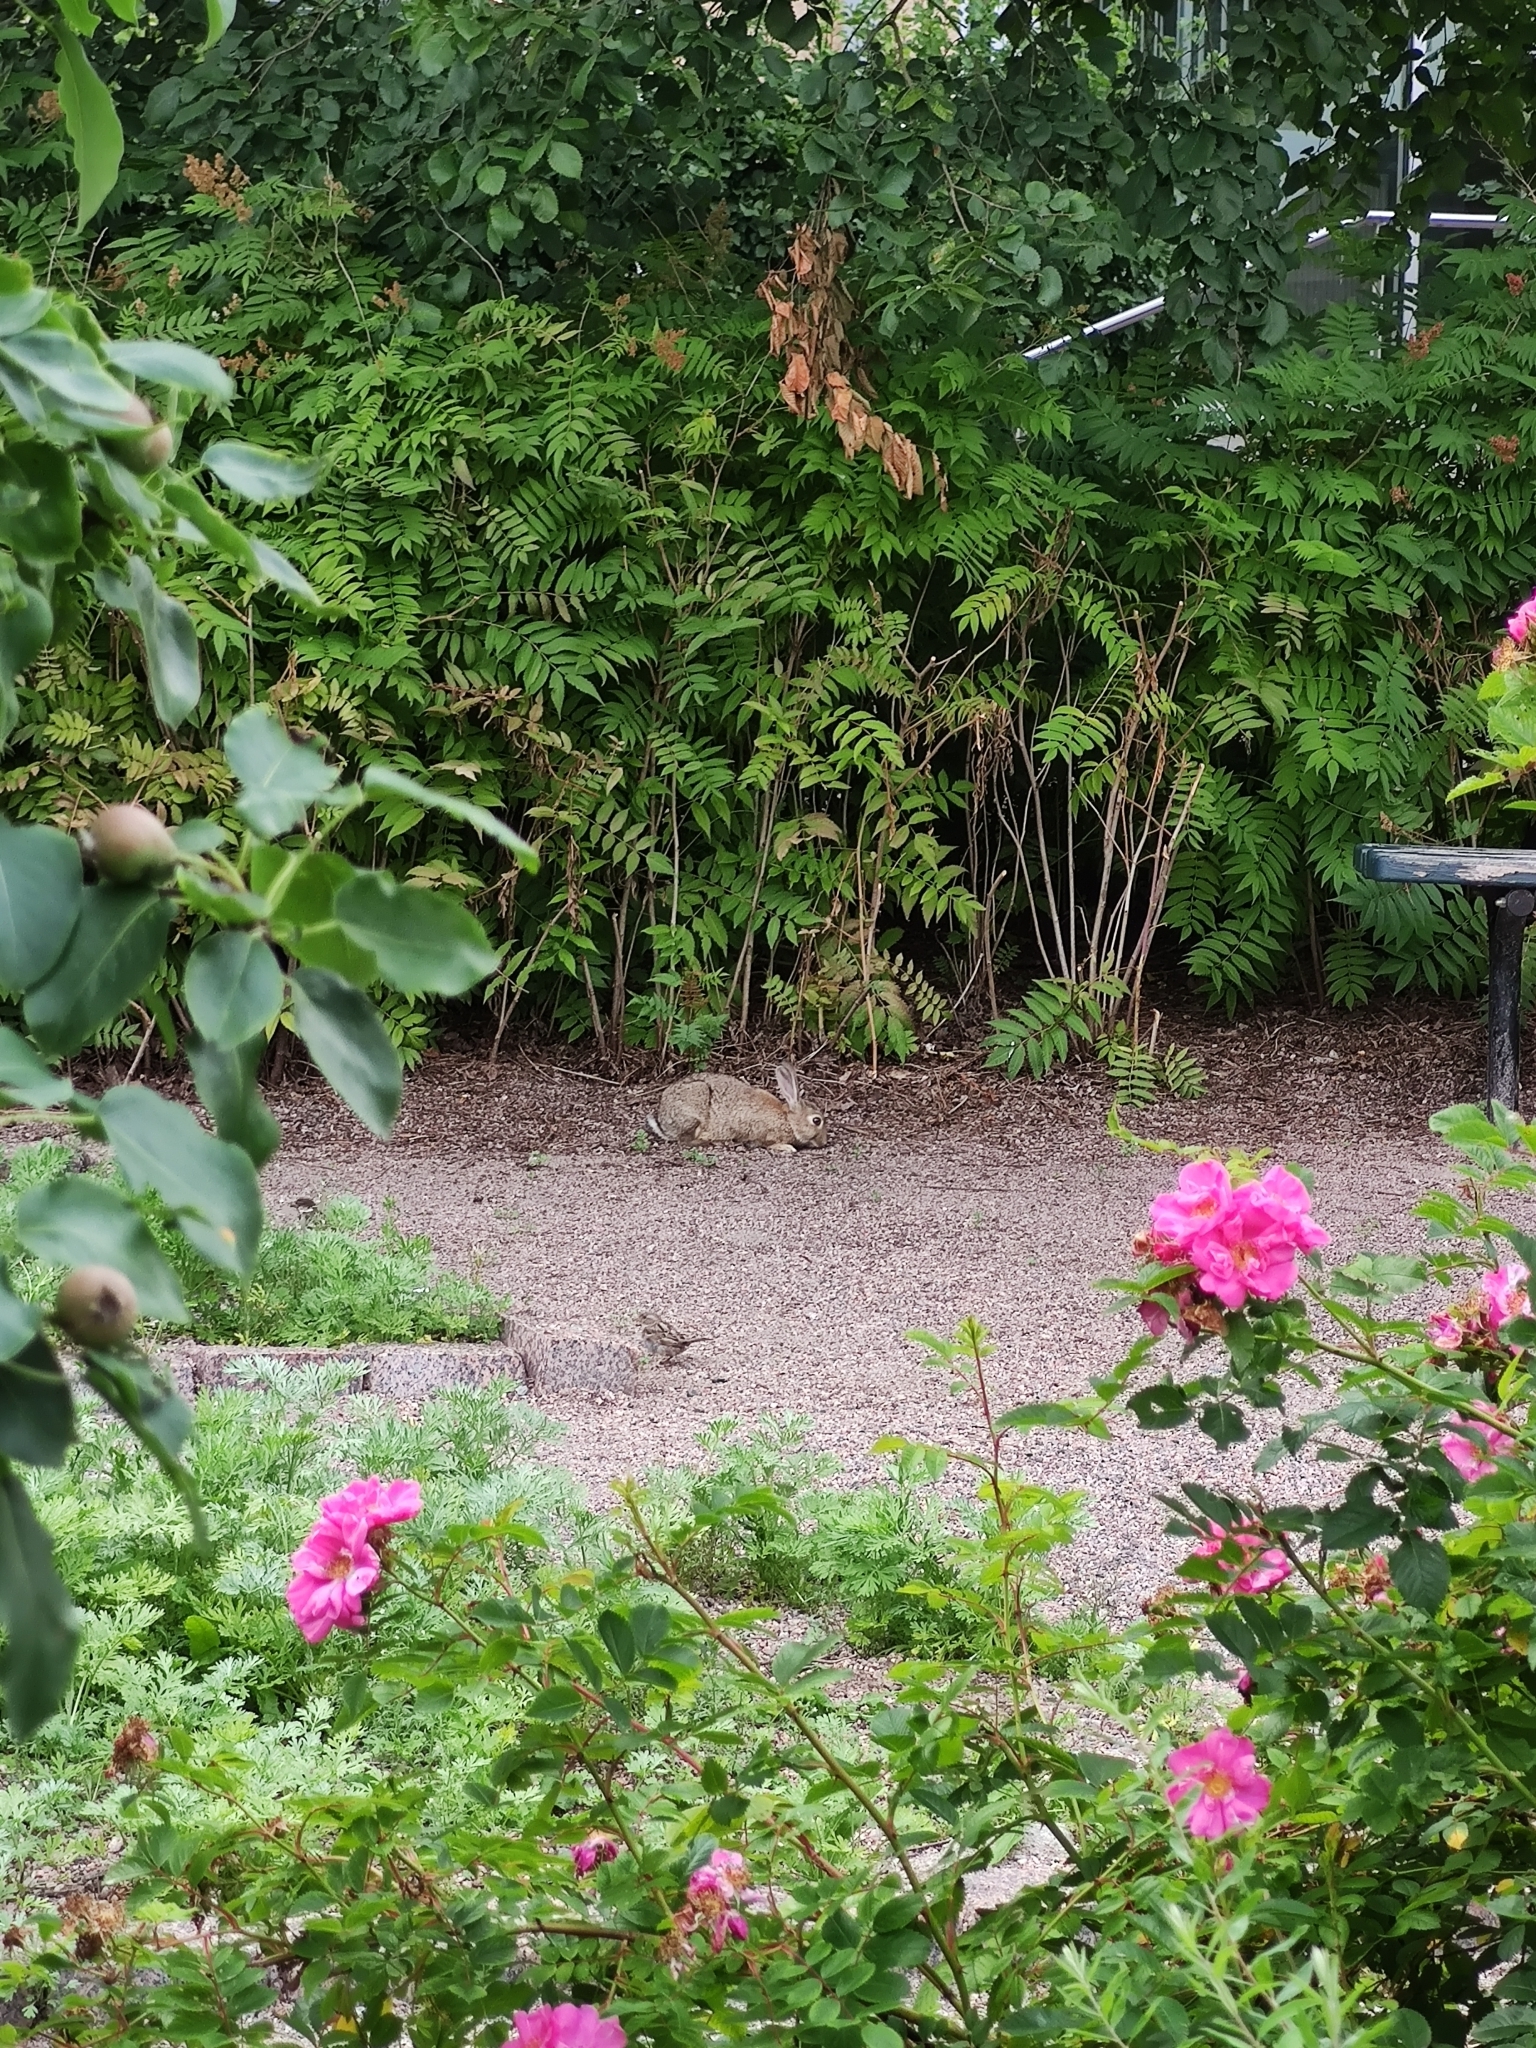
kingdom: Animalia
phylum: Chordata
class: Mammalia
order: Lagomorpha
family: Leporidae
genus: Oryctolagus
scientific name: Oryctolagus cuniculus
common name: European rabbit
